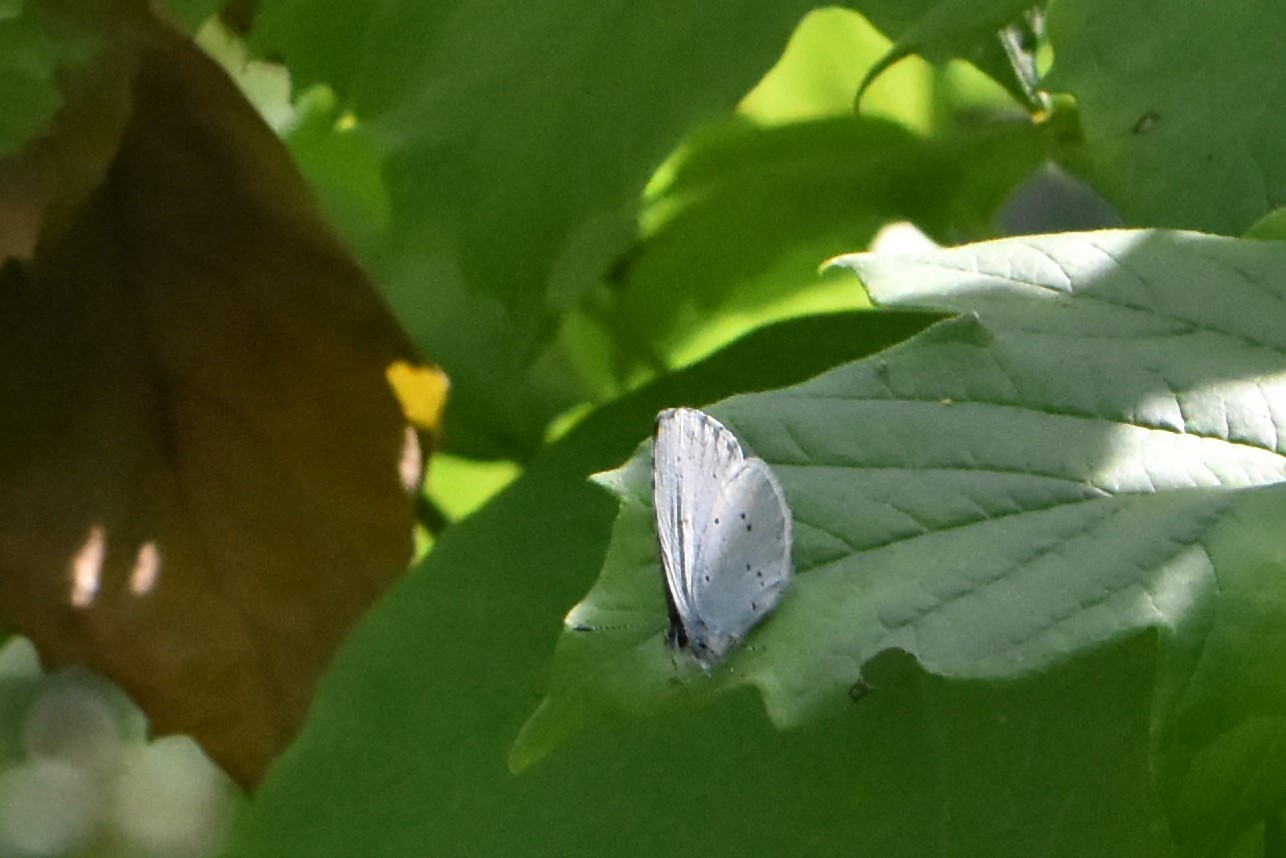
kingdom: Animalia
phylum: Arthropoda
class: Insecta
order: Lepidoptera
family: Lycaenidae
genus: Celastrina
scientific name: Celastrina argiolus
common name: Holly blue
